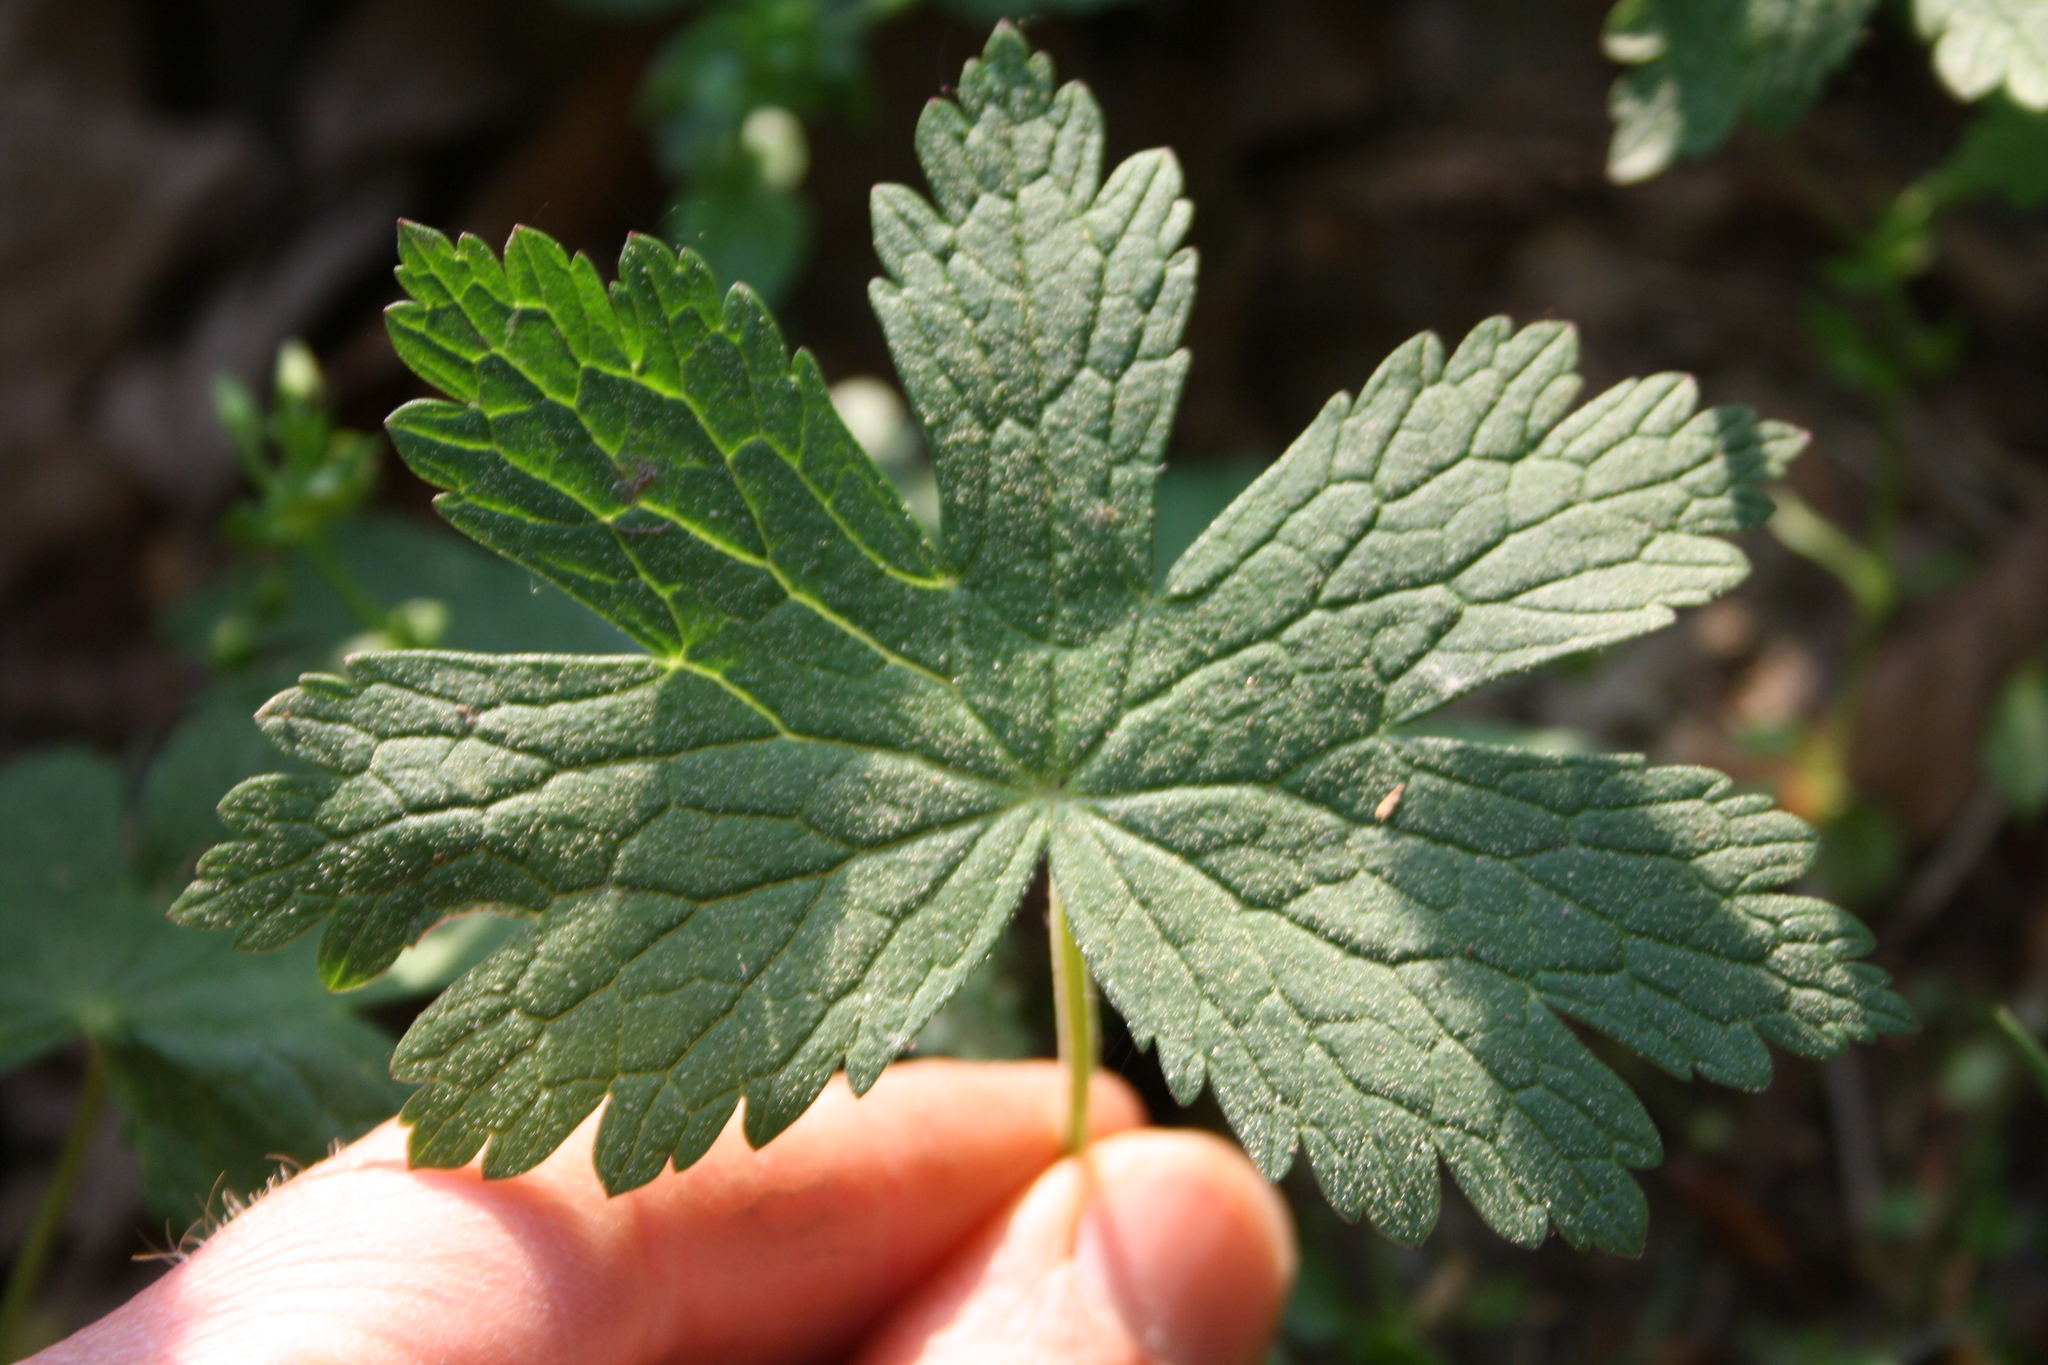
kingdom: Plantae
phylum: Tracheophyta
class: Magnoliopsida
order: Geraniales
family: Geraniaceae
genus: Geranium
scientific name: Geranium phaeum
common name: Dusky crane's-bill
